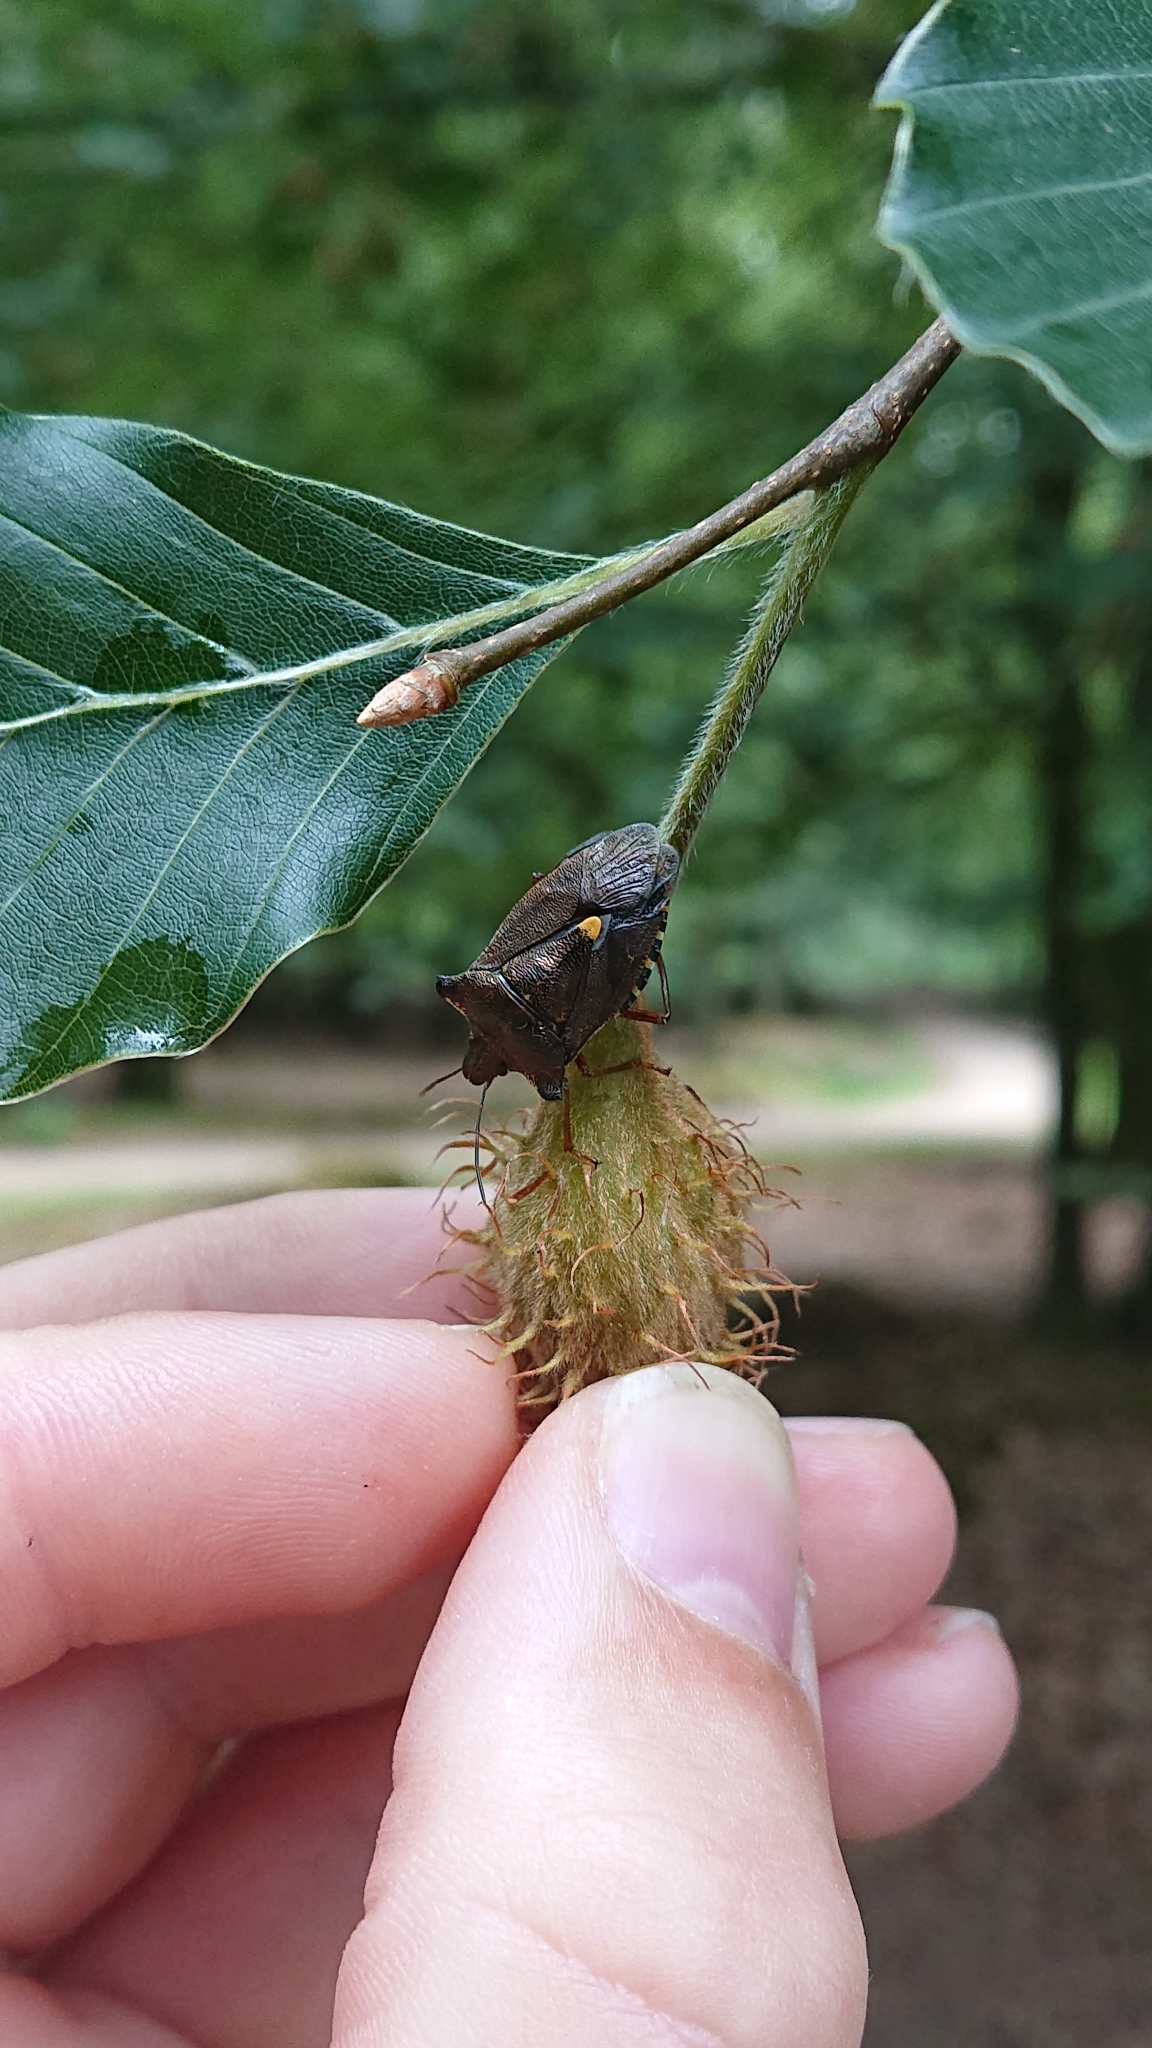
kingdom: Animalia
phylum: Arthropoda
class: Insecta
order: Hemiptera
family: Pentatomidae
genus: Pentatoma
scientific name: Pentatoma rufipes
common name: Forest bug
